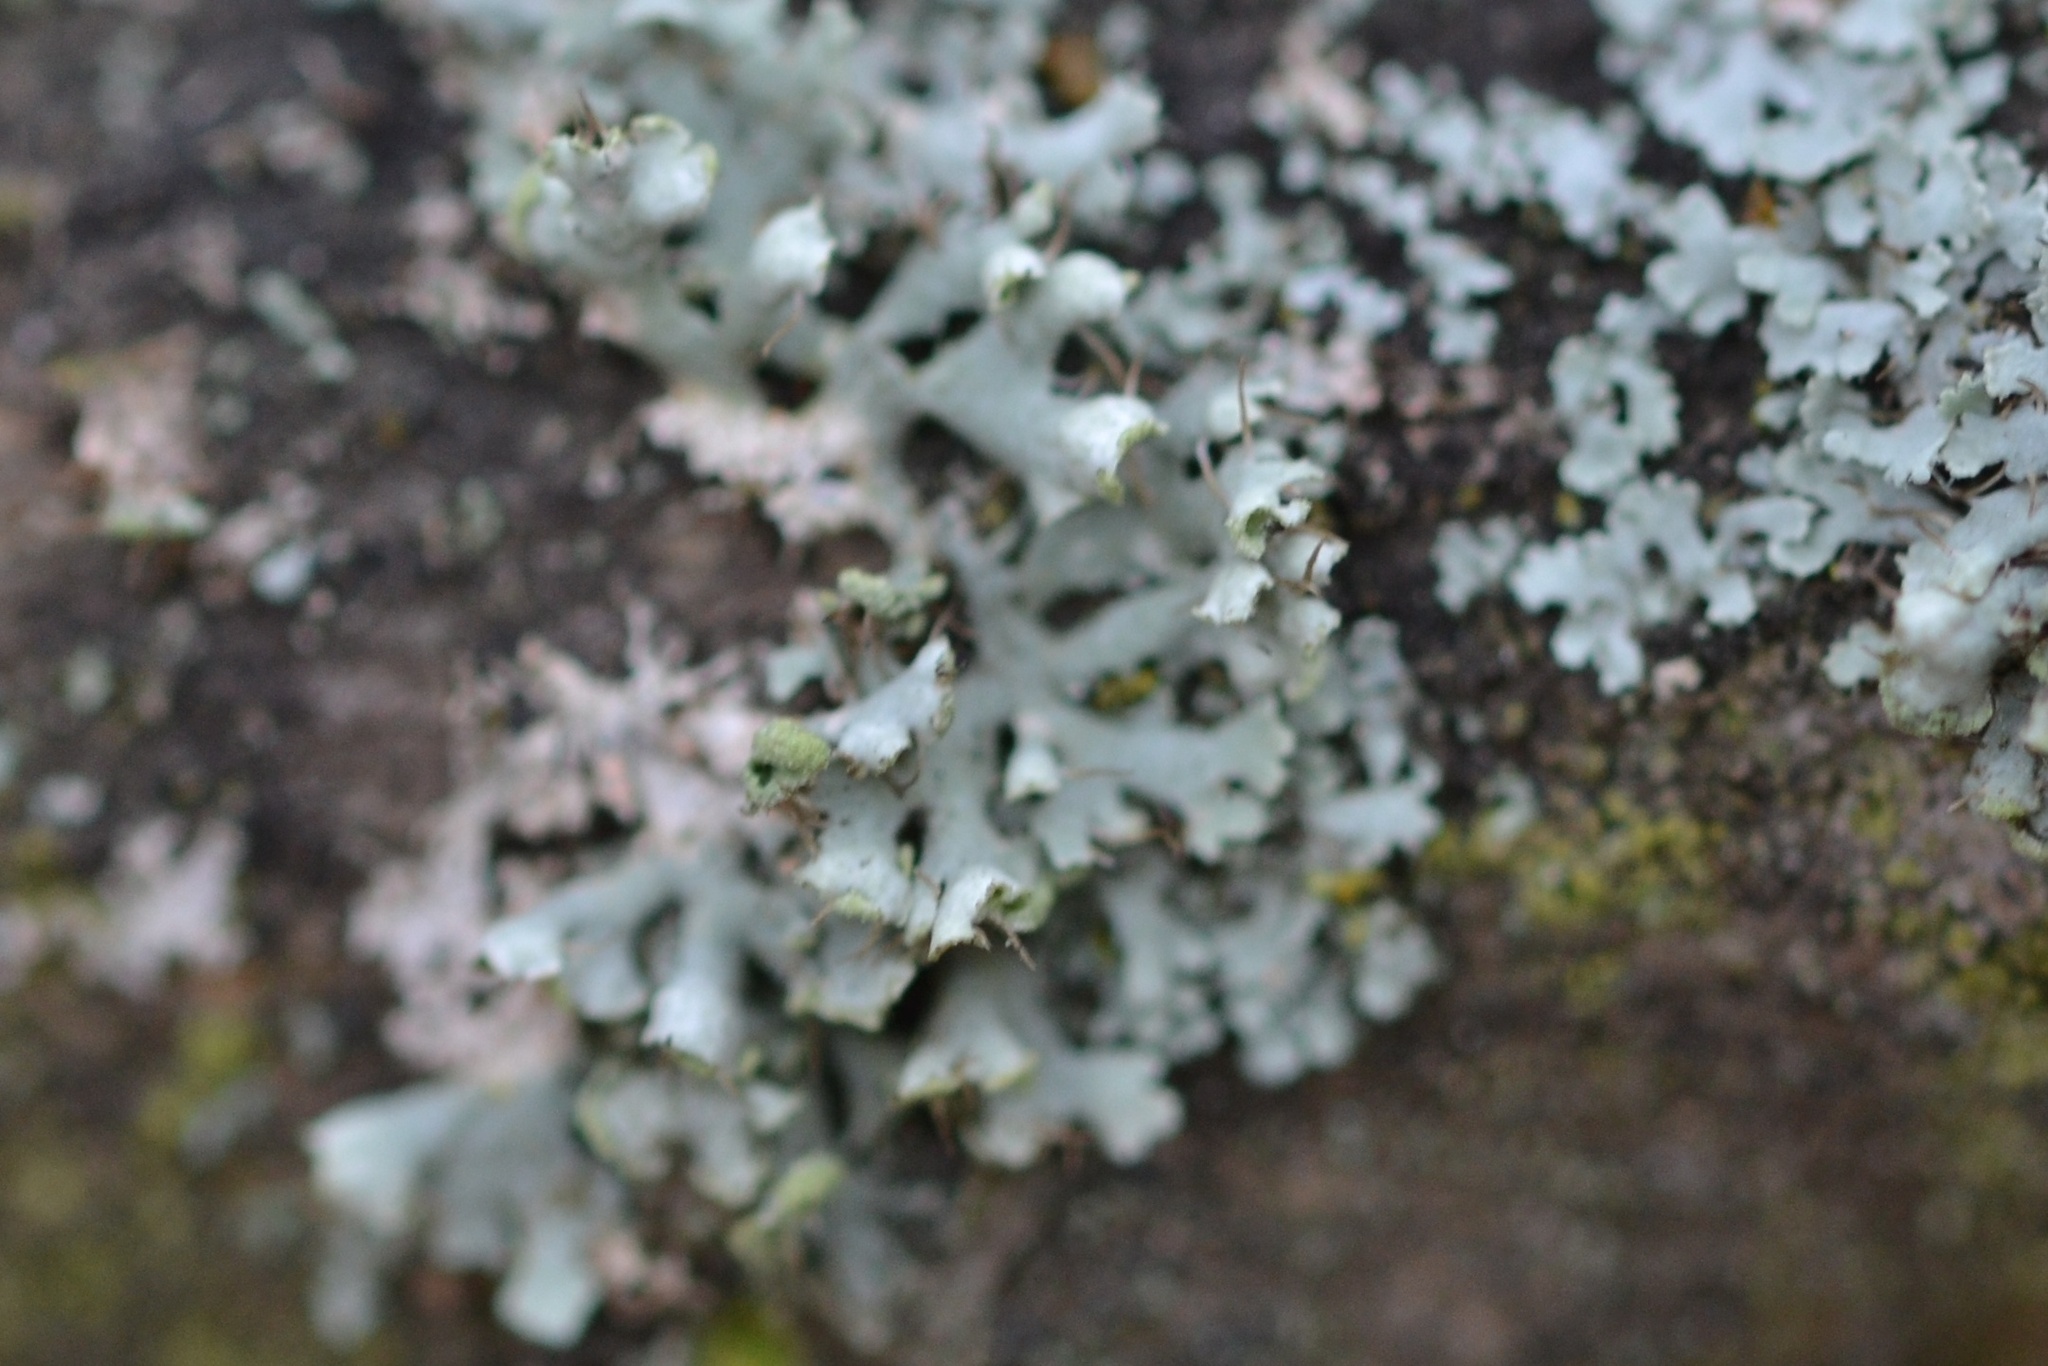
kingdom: Fungi
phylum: Ascomycota
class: Lecanoromycetes
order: Caliciales
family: Physciaceae
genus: Physcia
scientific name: Physcia adscendens
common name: Hooded rosette lichen
